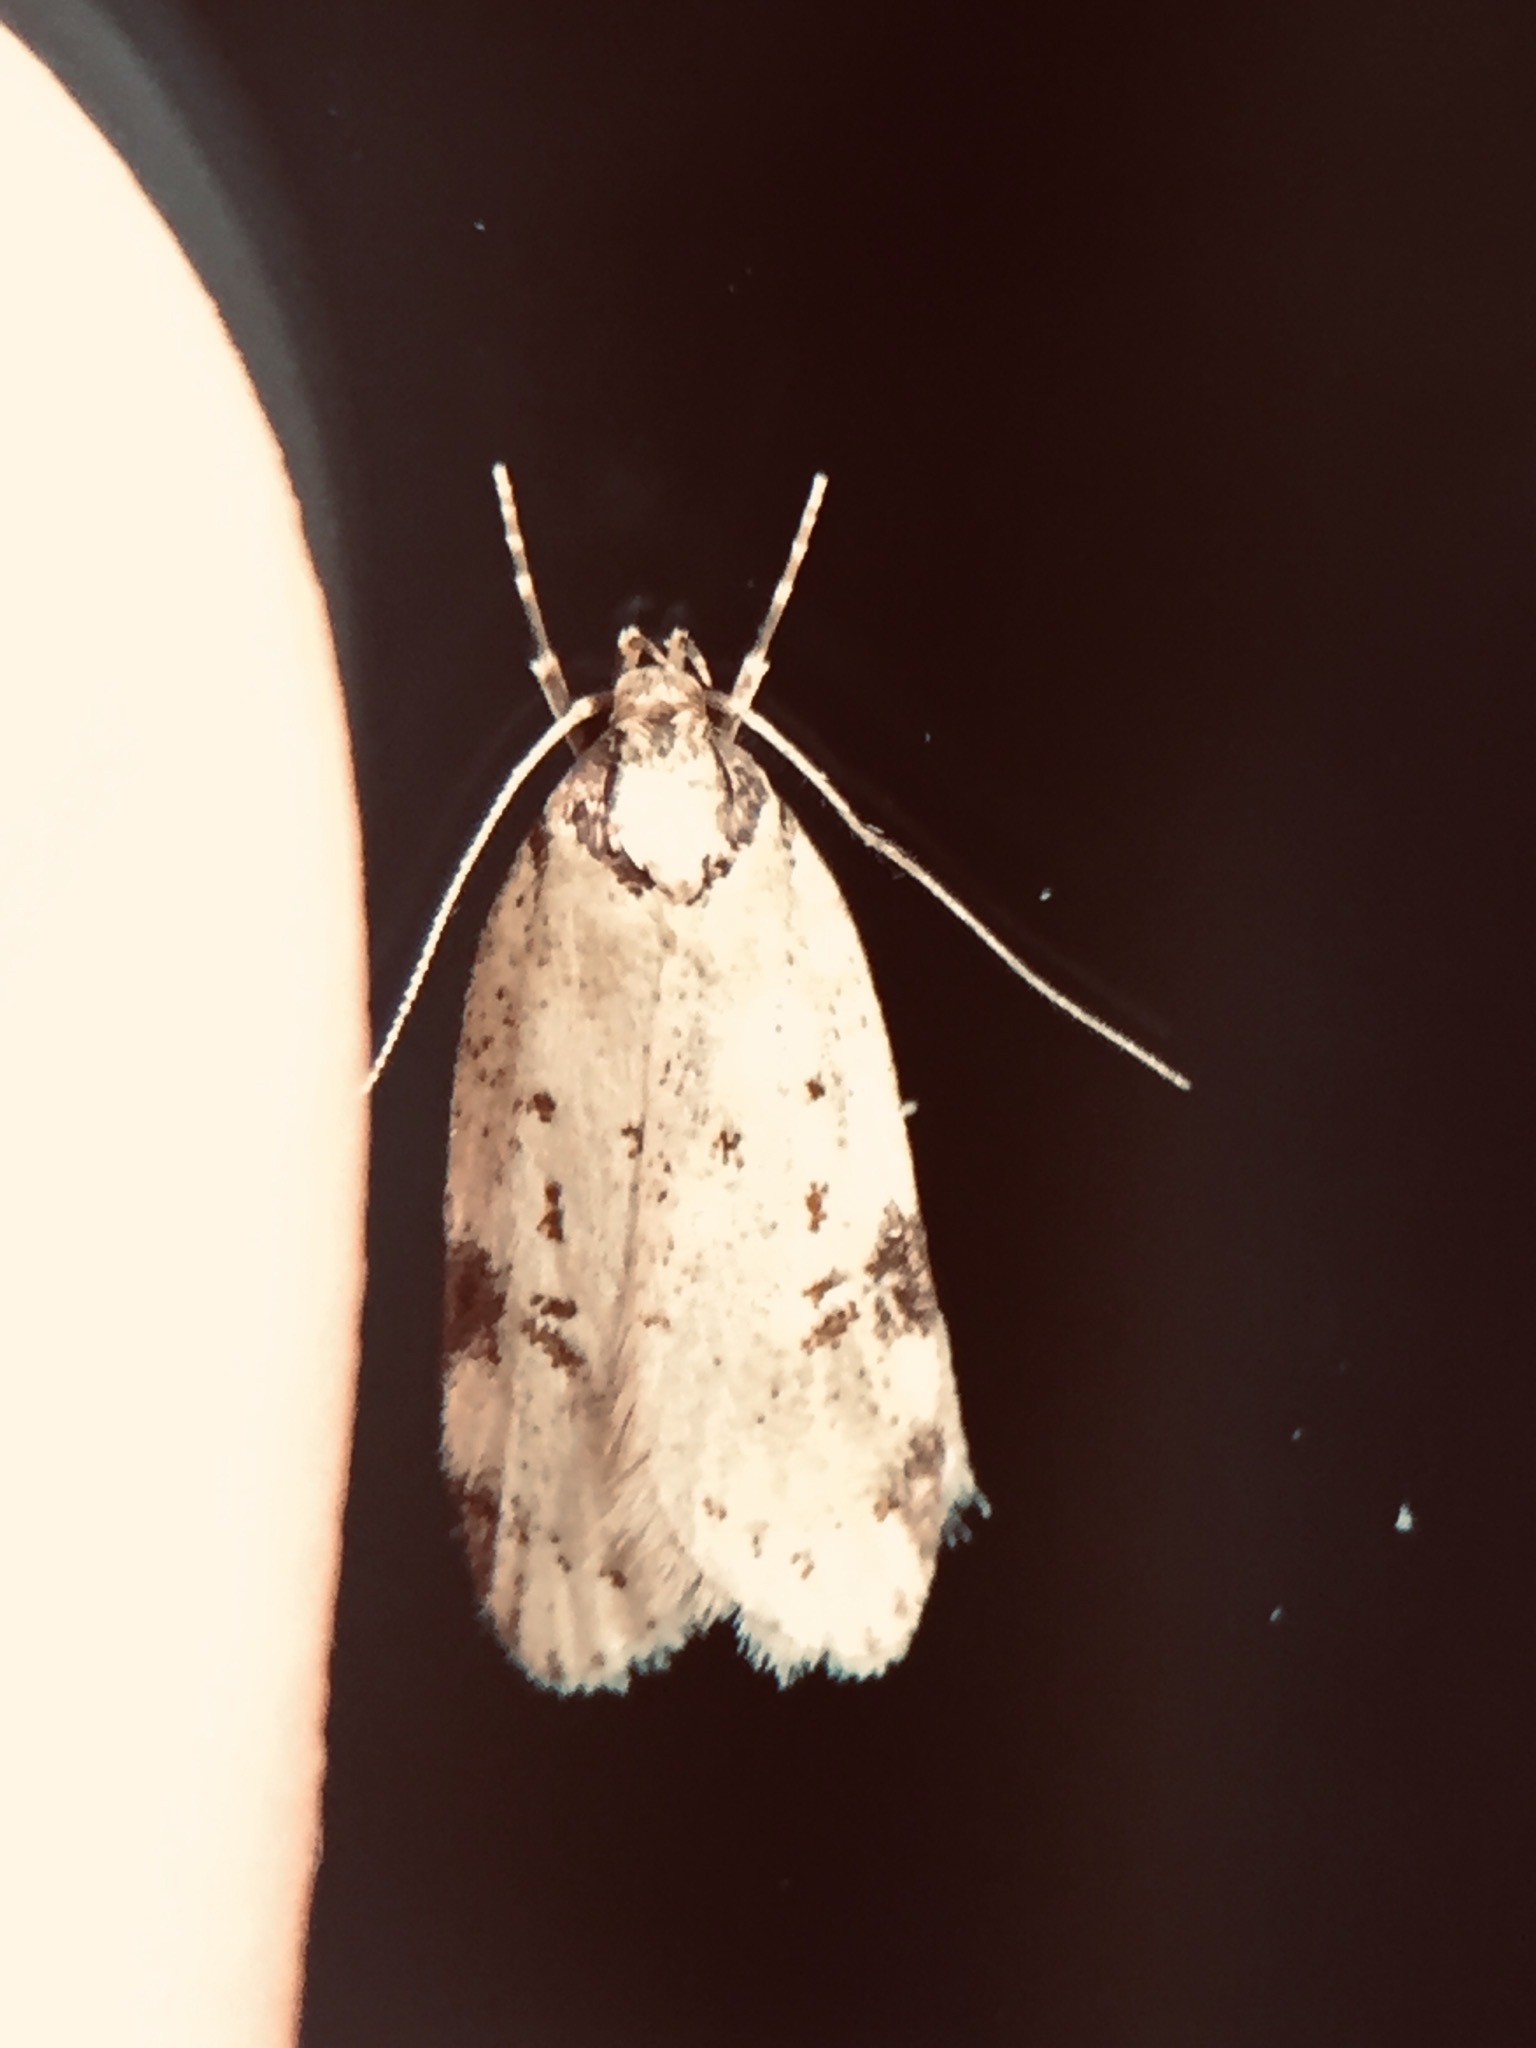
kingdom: Animalia
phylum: Arthropoda
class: Insecta
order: Lepidoptera
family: Oecophoridae
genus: Eulechria
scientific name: Eulechria zophoessa
